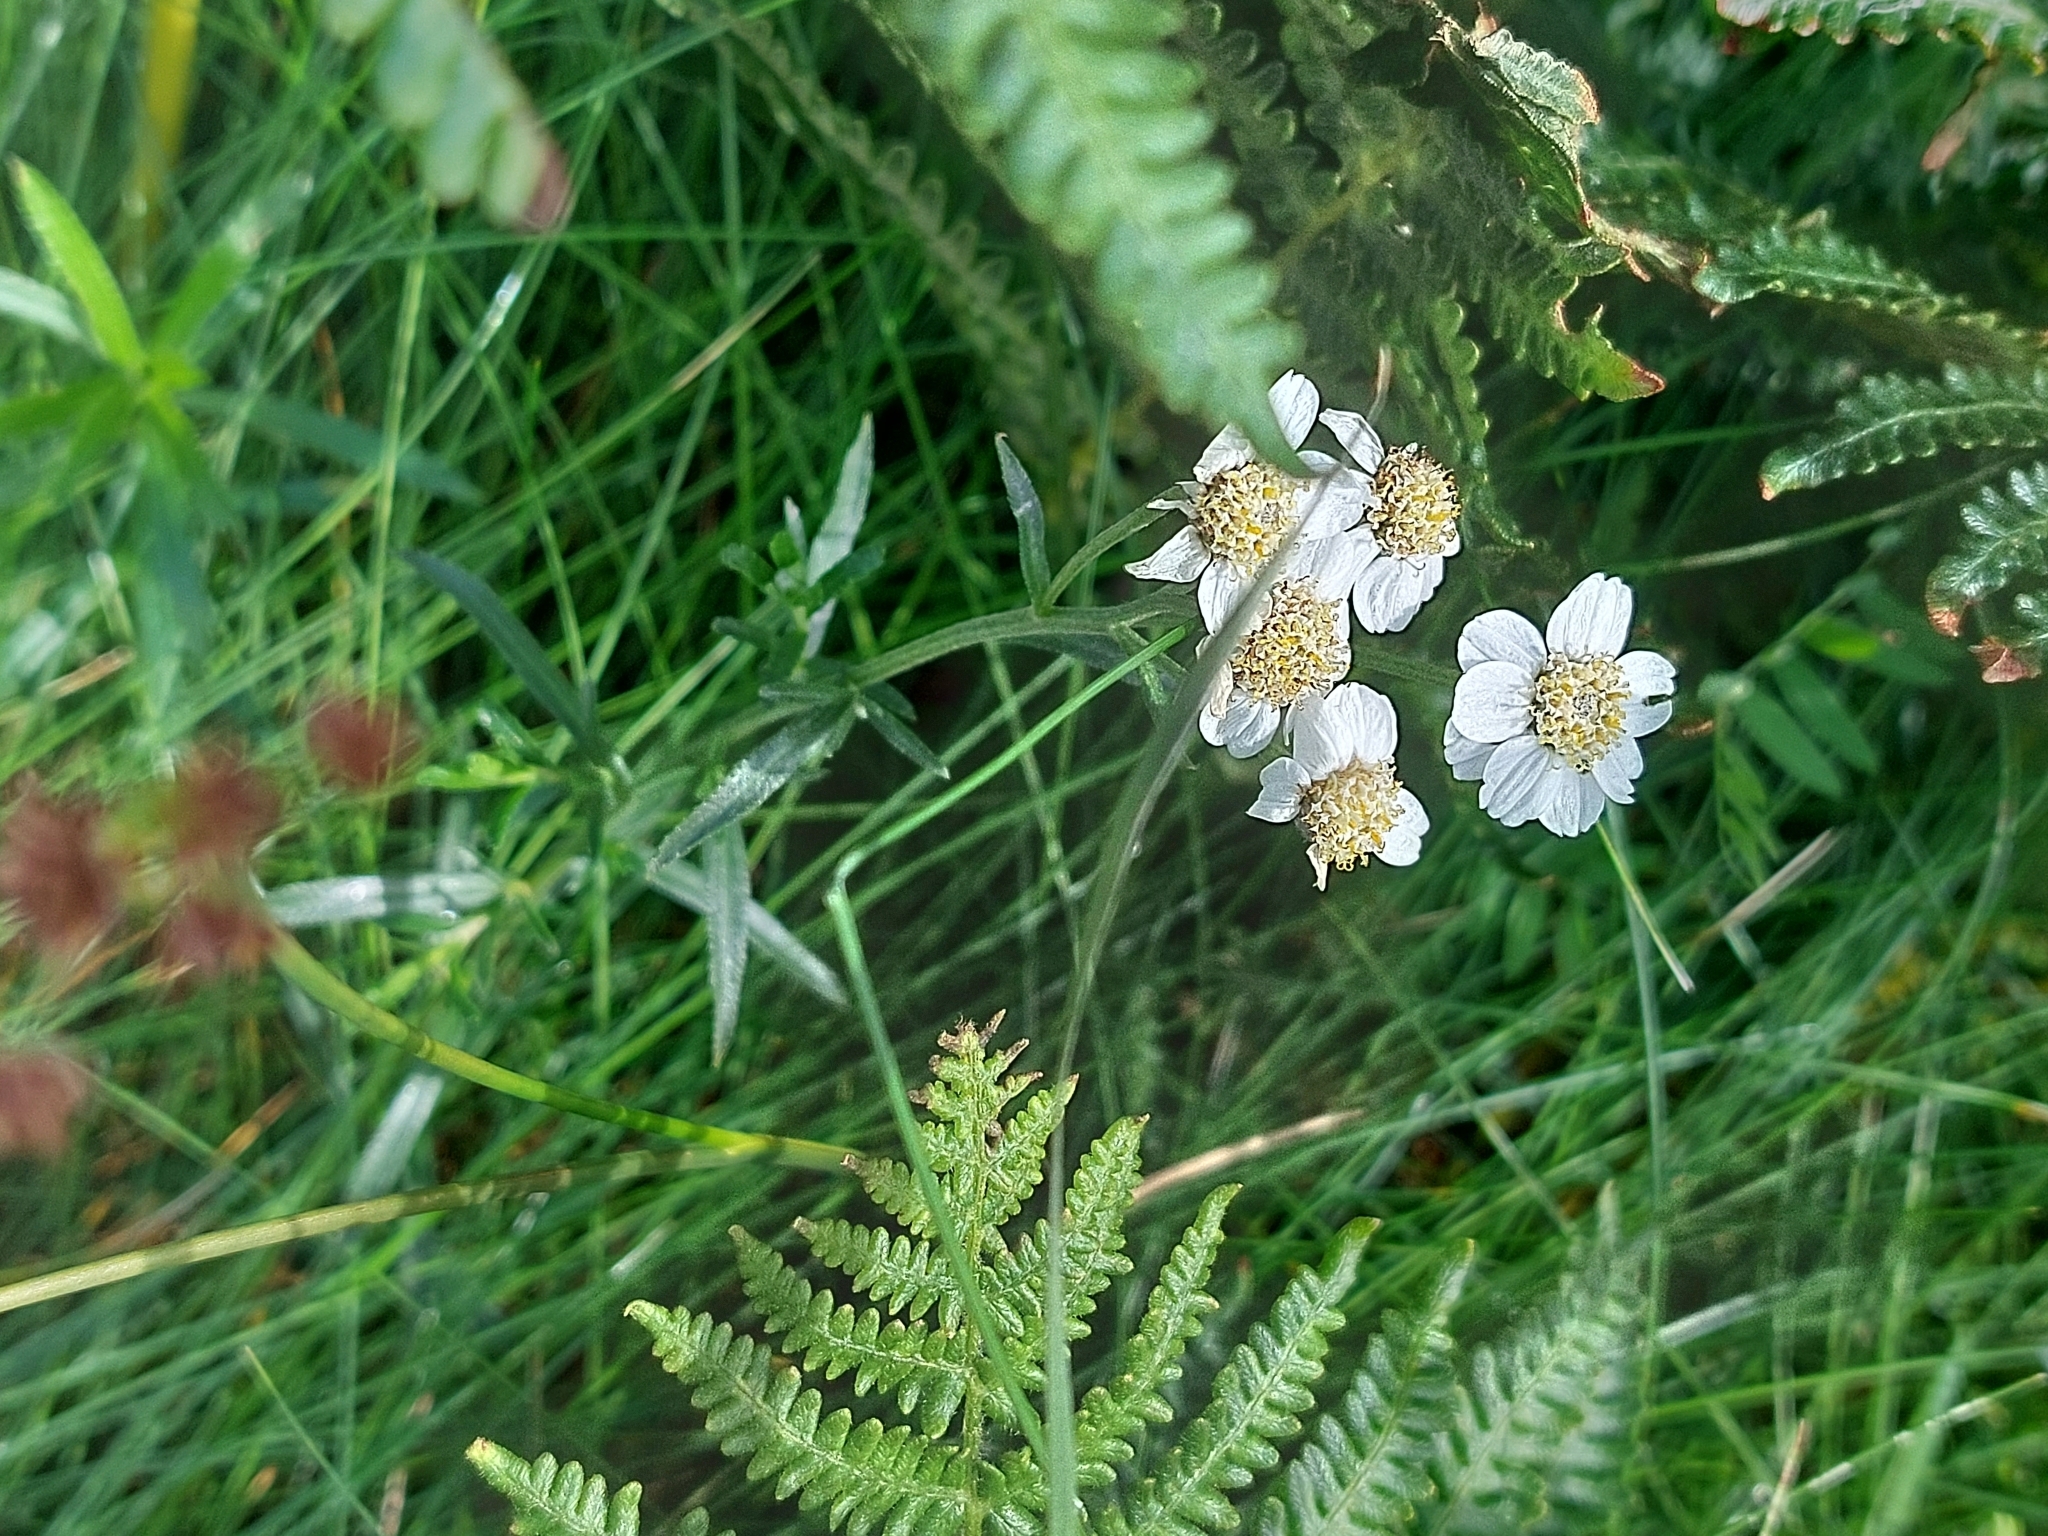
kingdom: Plantae
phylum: Tracheophyta
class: Magnoliopsida
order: Asterales
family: Asteraceae
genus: Achillea
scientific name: Achillea ptarmica
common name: Sneezeweed
